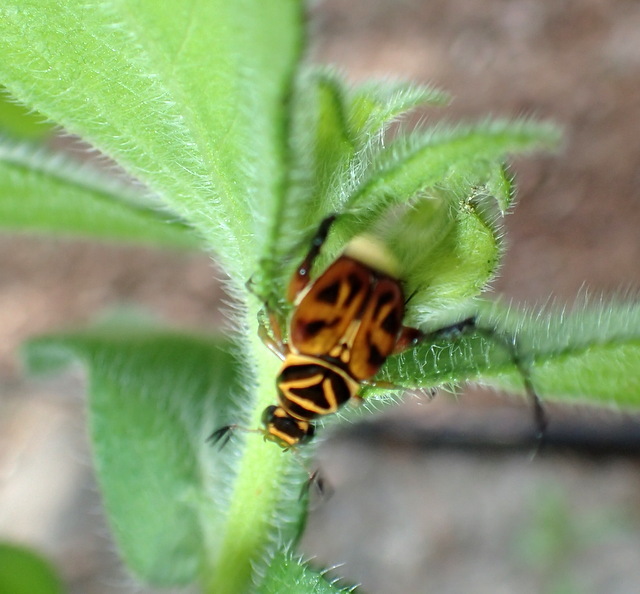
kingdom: Animalia
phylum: Arthropoda
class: Insecta
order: Coleoptera
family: Scarabaeidae
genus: Trigonopeltastes
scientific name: Trigonopeltastes delta
